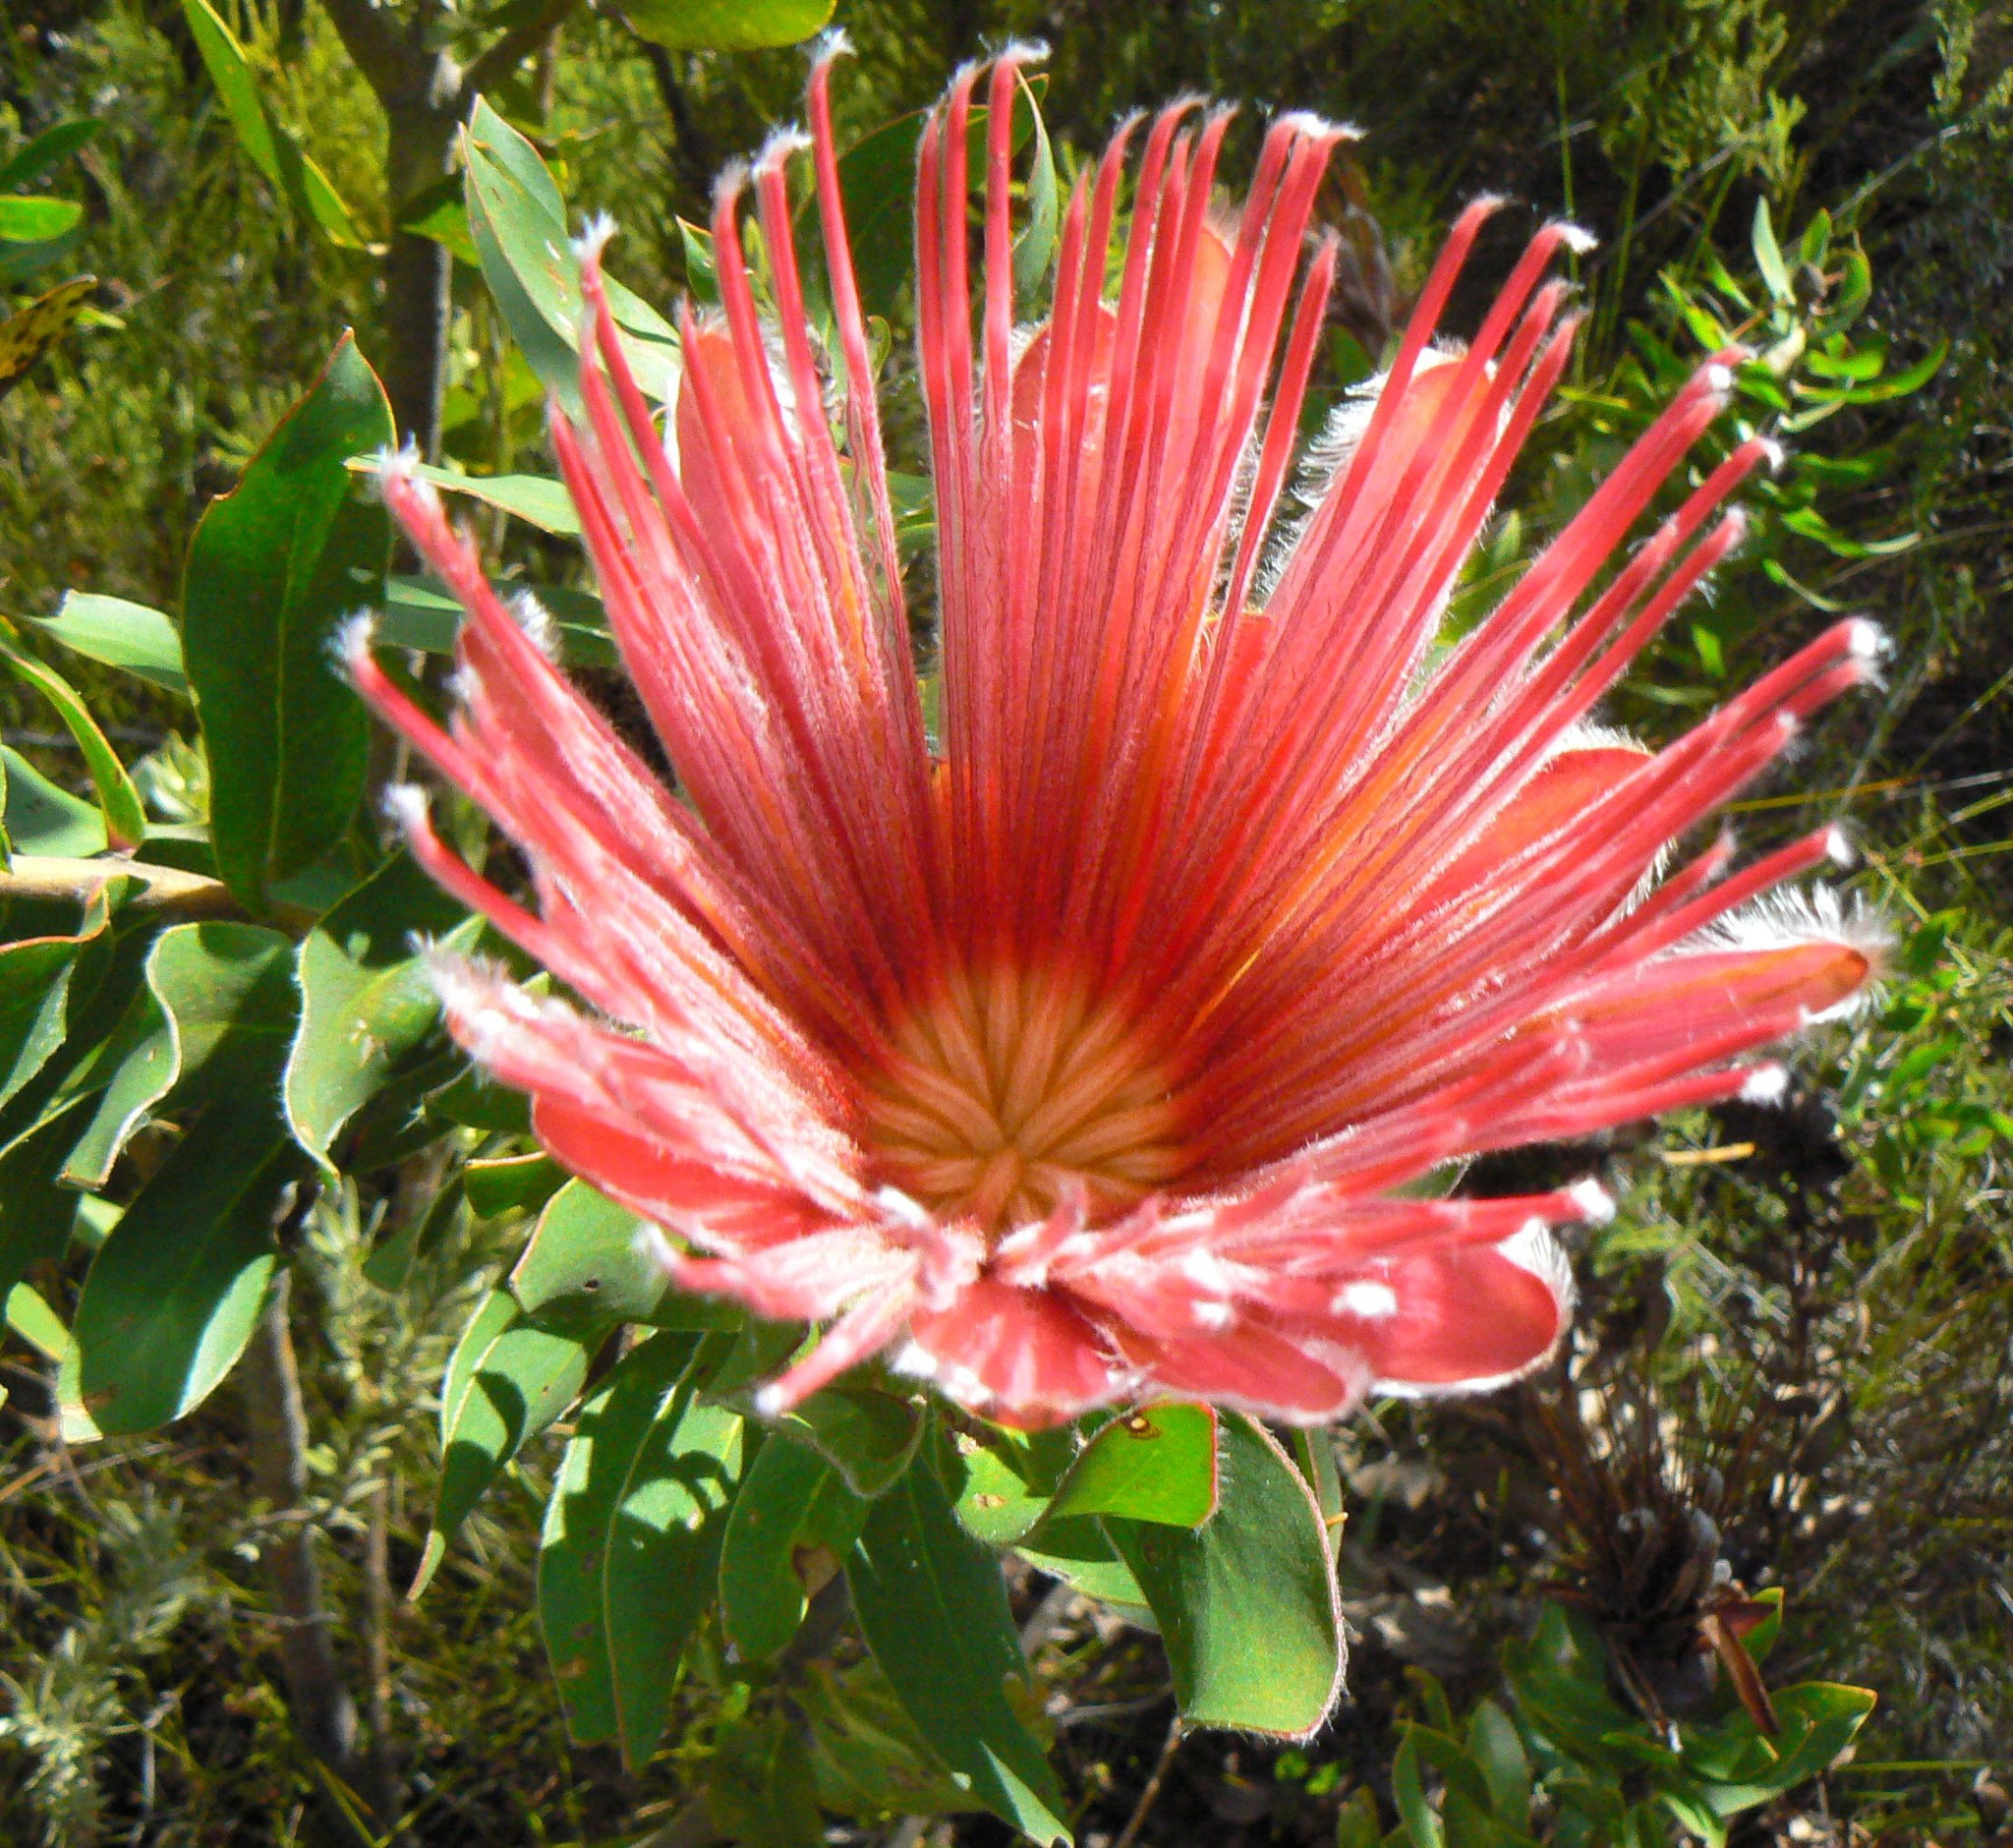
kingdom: Plantae
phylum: Tracheophyta
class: Magnoliopsida
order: Proteales
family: Proteaceae
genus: Protea
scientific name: Protea aurea
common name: Shuttlecock sugarbush
